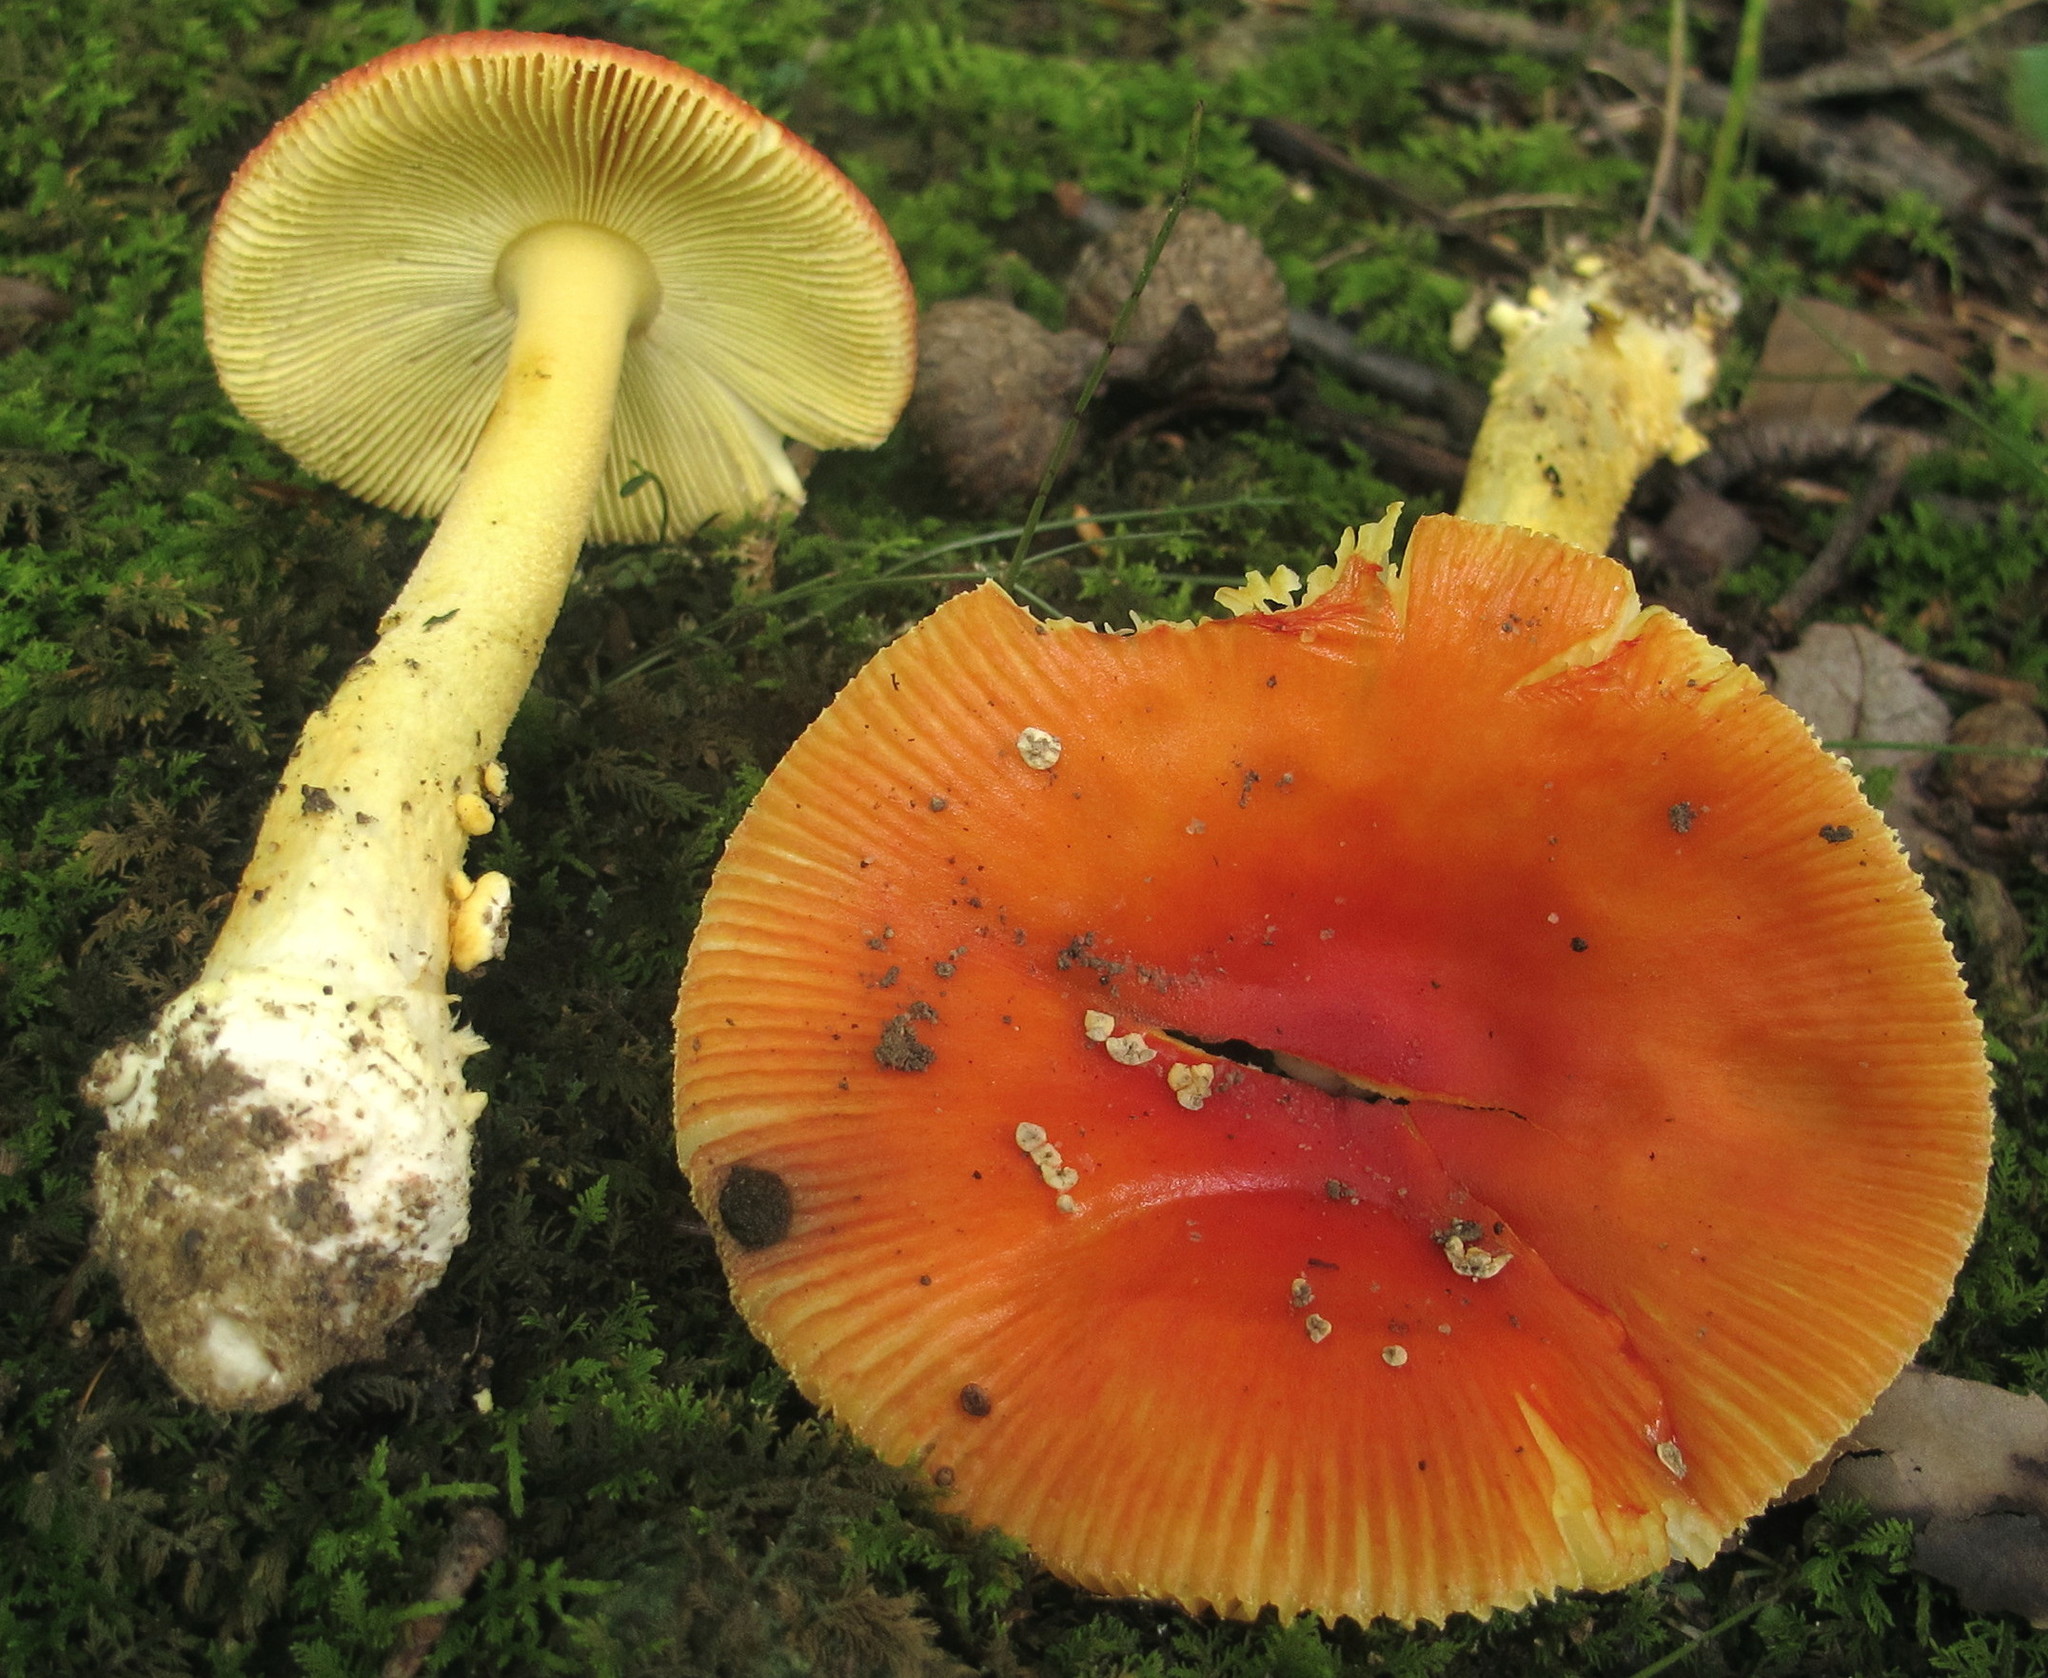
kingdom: Fungi
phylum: Basidiomycota
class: Agaricomycetes
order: Agaricales
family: Amanitaceae
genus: Amanita
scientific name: Amanita parcivolvata
